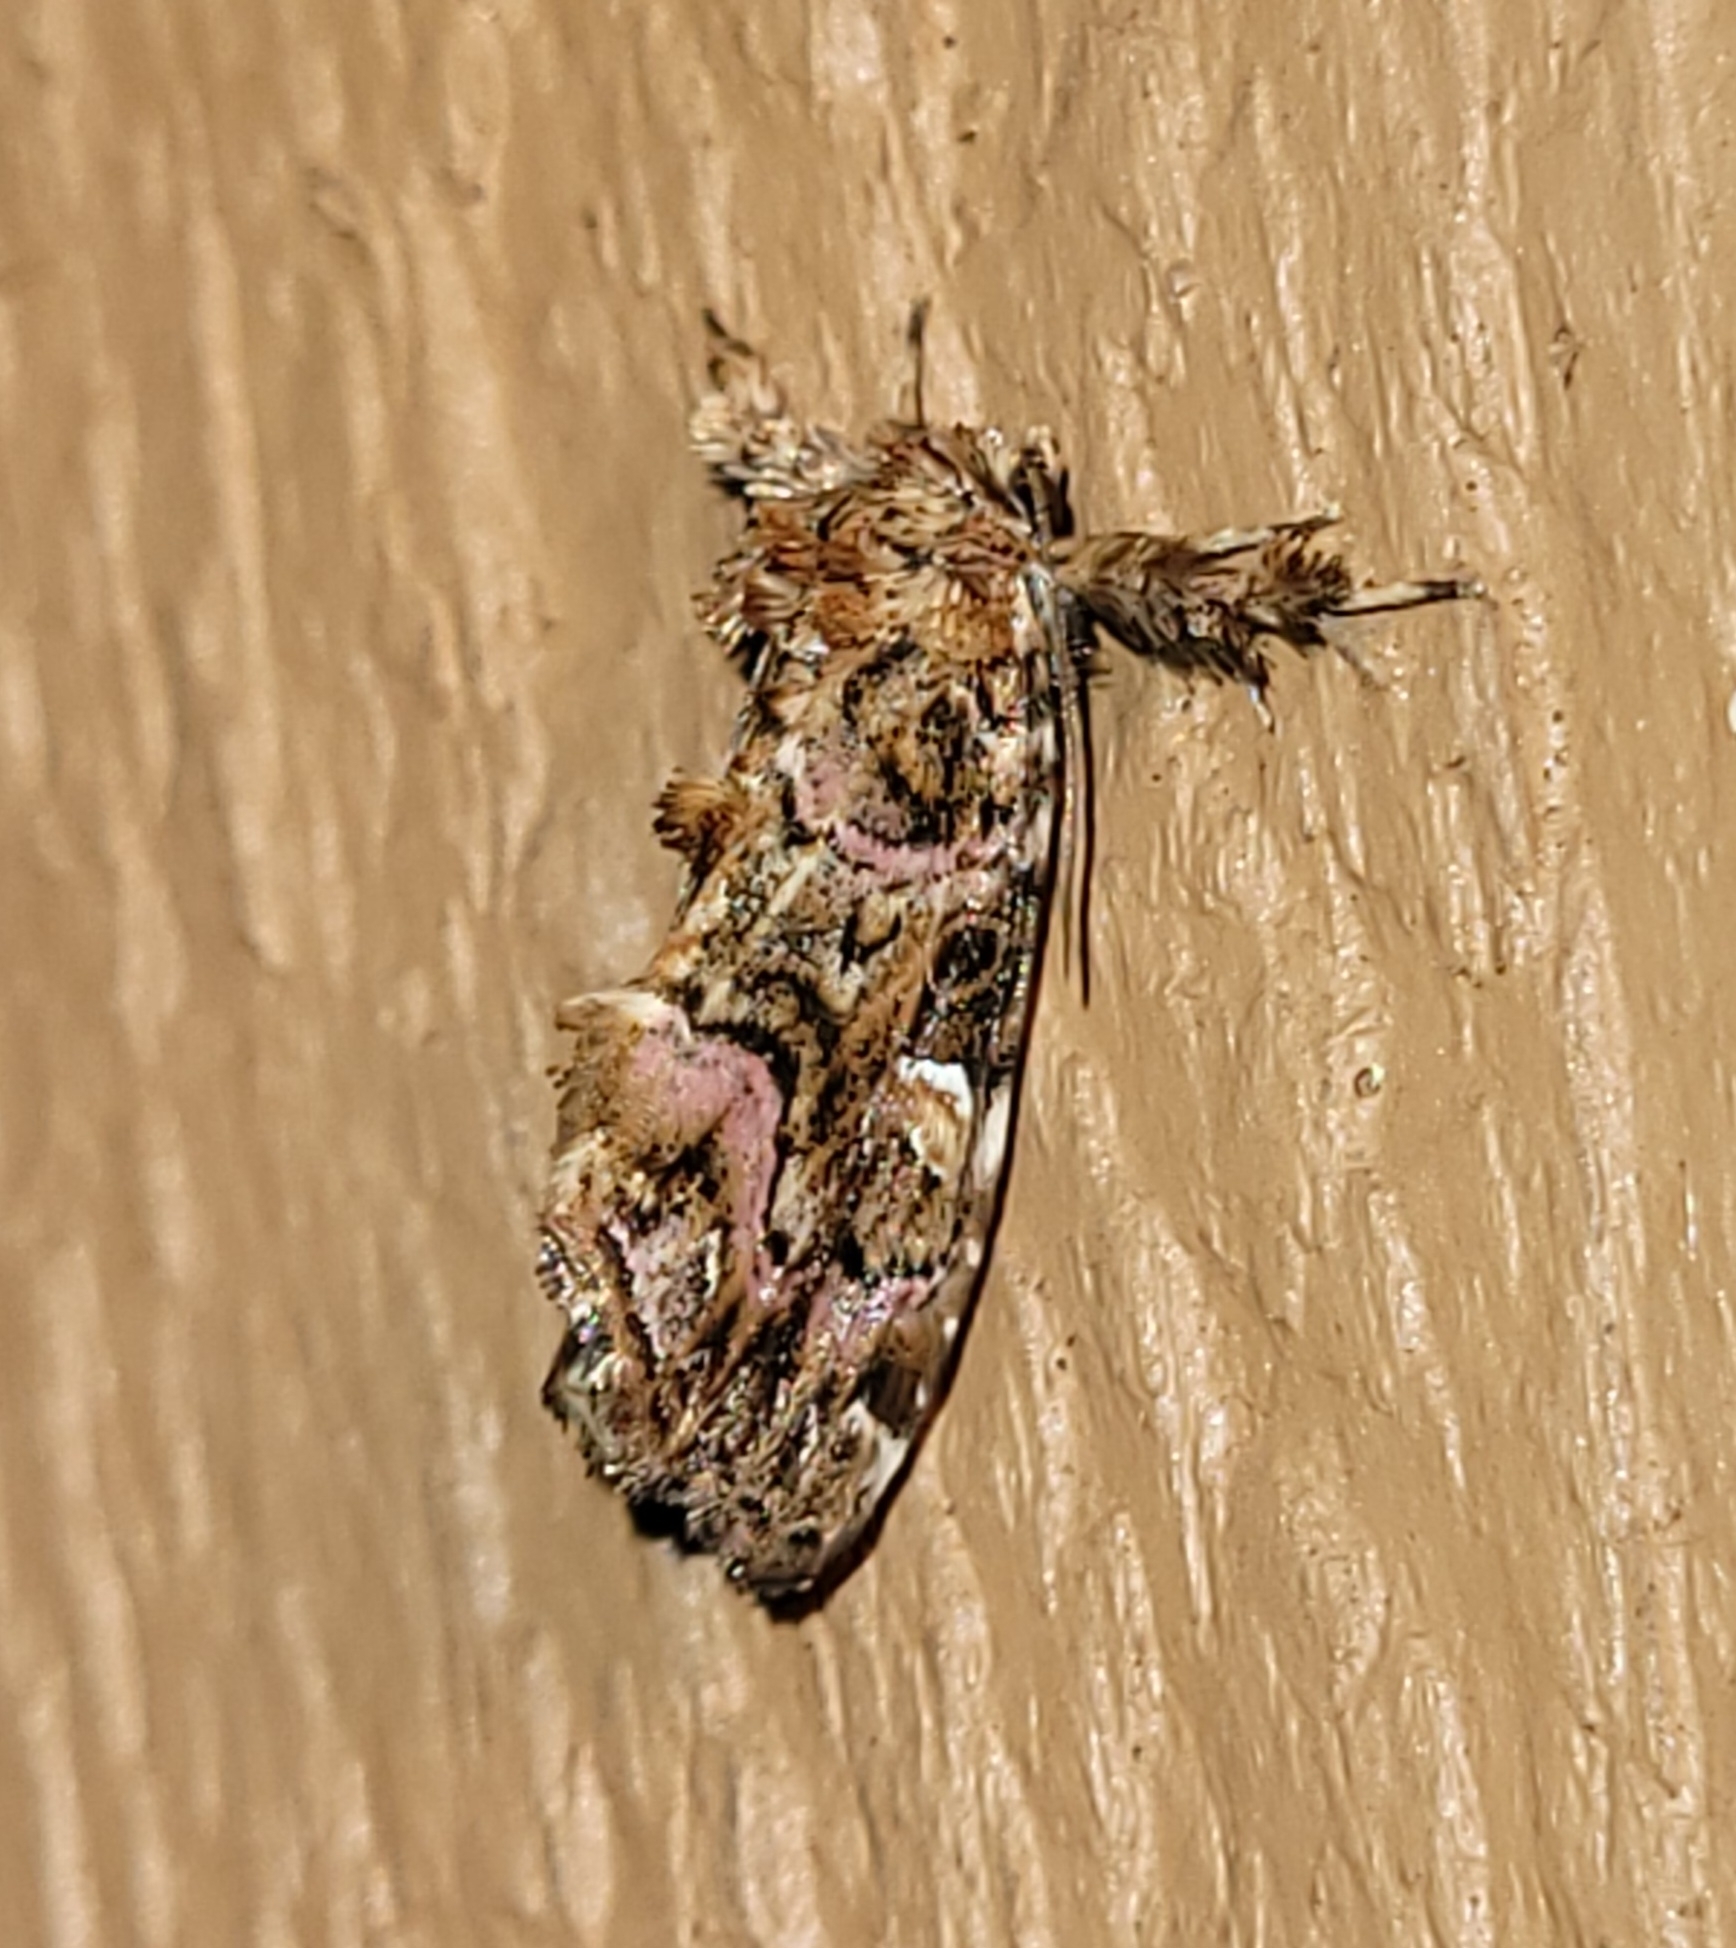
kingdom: Animalia
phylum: Arthropoda
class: Insecta
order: Lepidoptera
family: Noctuidae
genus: Callopistria
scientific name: Callopistria mollissima
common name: Pink-shaded fern moth
